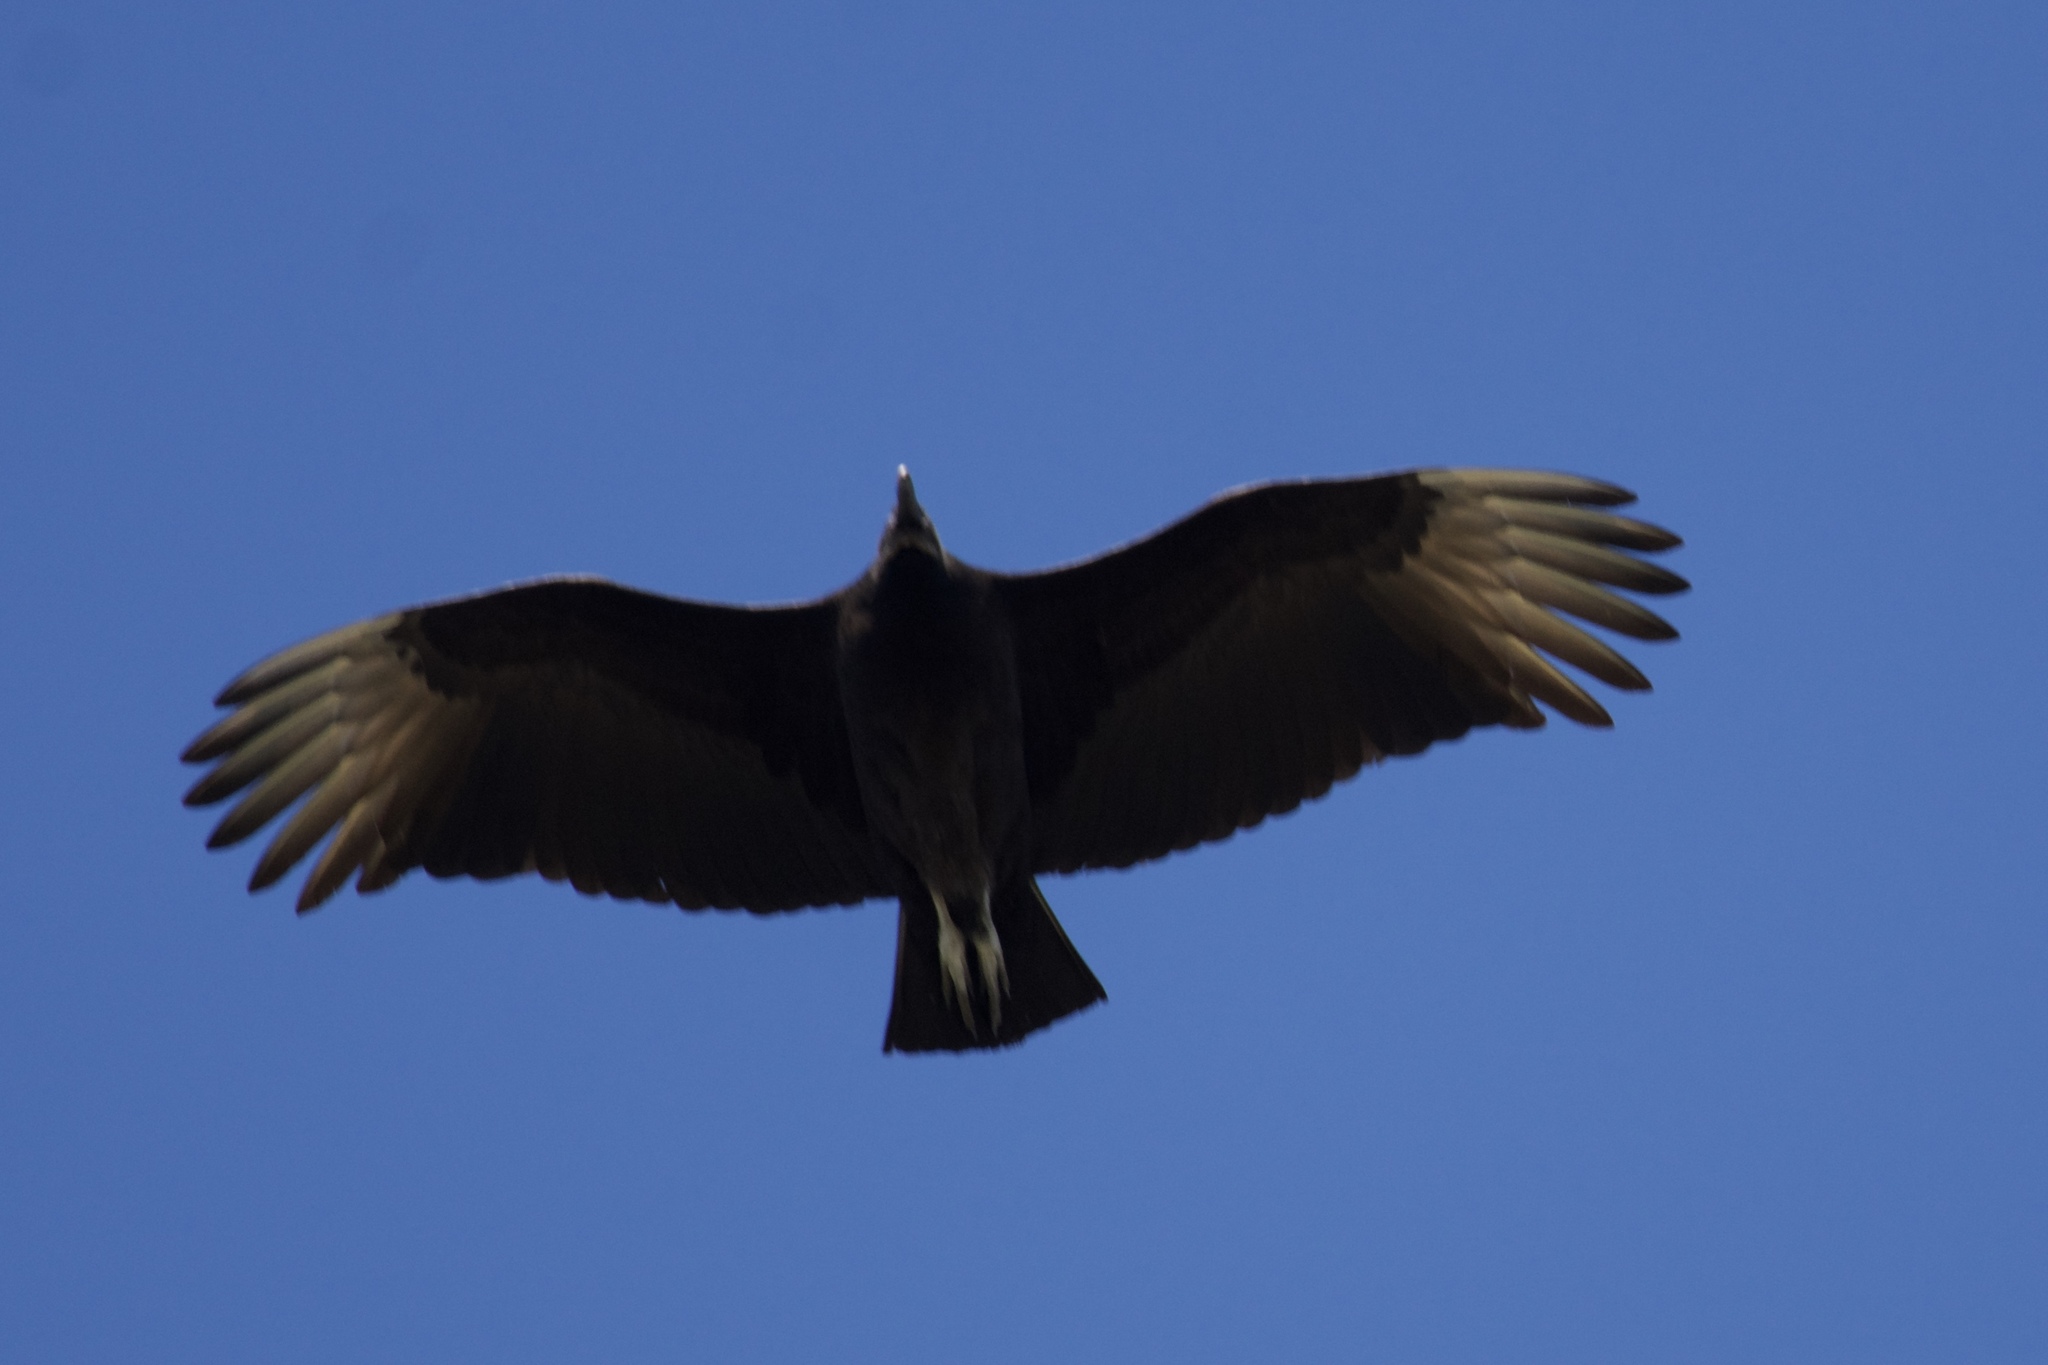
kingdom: Animalia
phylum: Chordata
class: Aves
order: Accipitriformes
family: Cathartidae
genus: Coragyps
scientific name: Coragyps atratus
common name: Black vulture
